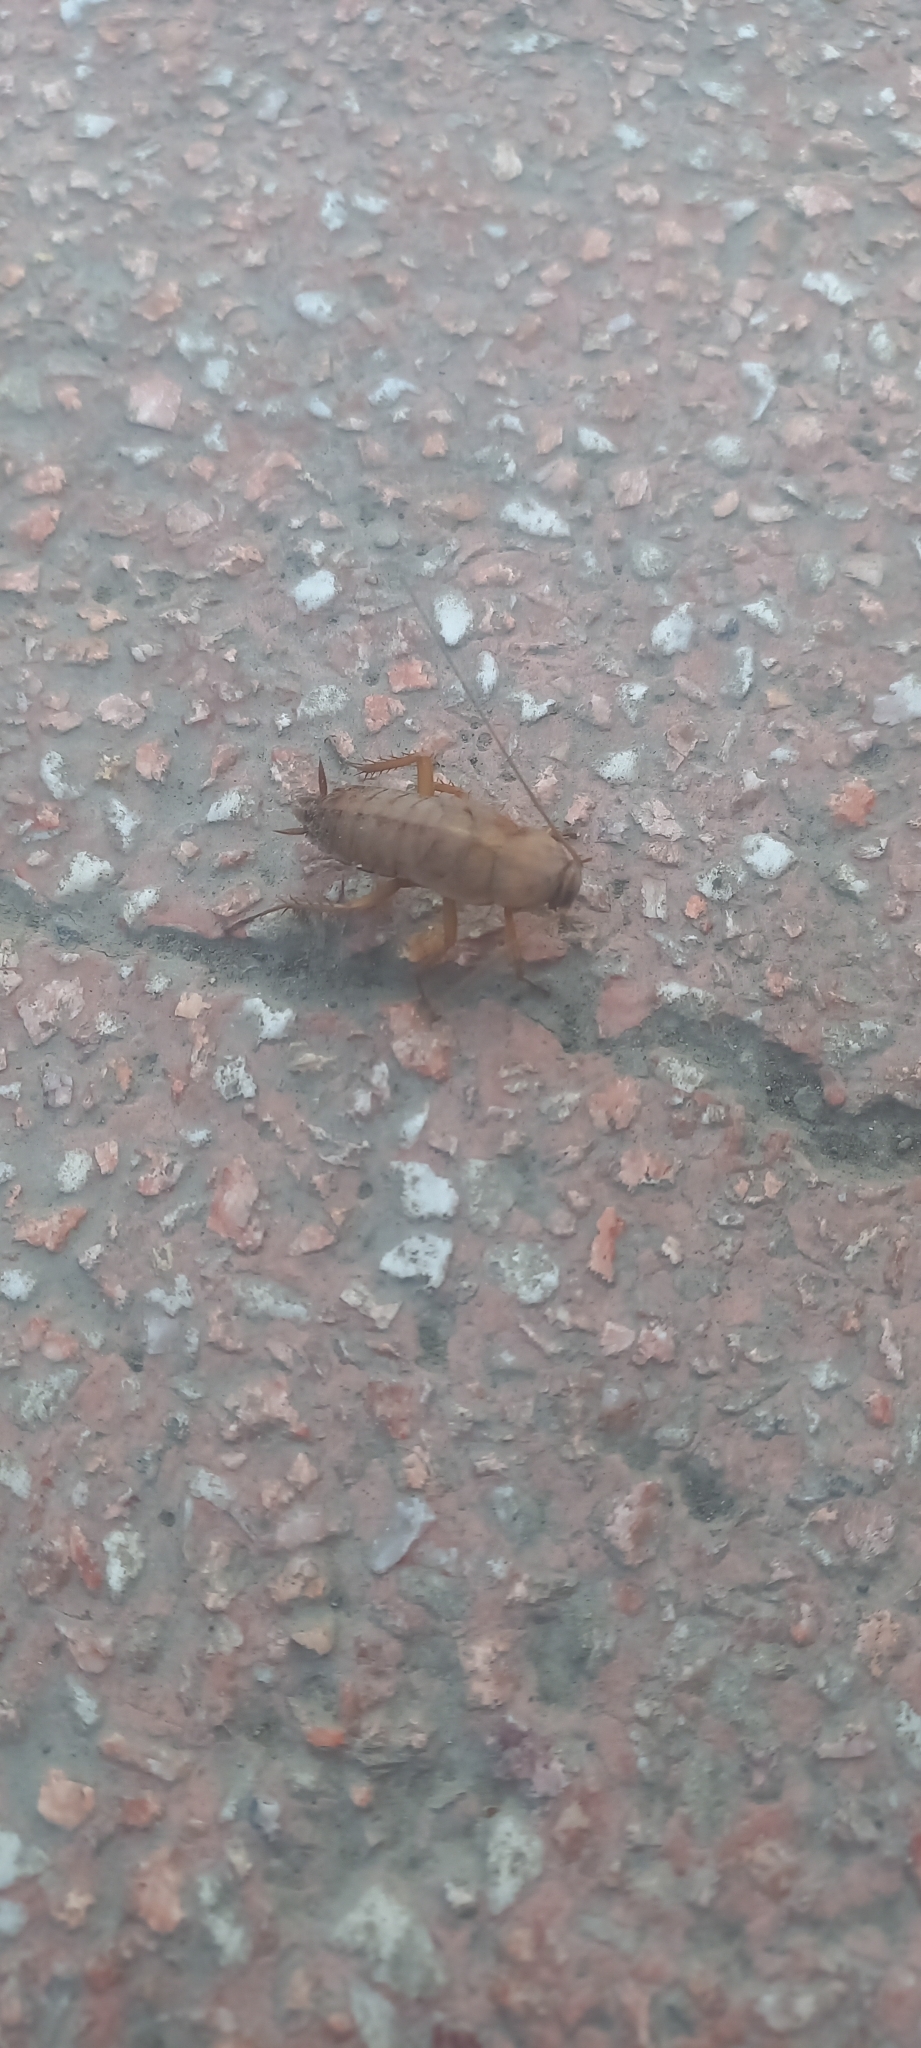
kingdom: Animalia
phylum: Arthropoda
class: Insecta
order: Blattodea
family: Blattidae
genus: Periplaneta
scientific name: Periplaneta americana
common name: American cockroach
